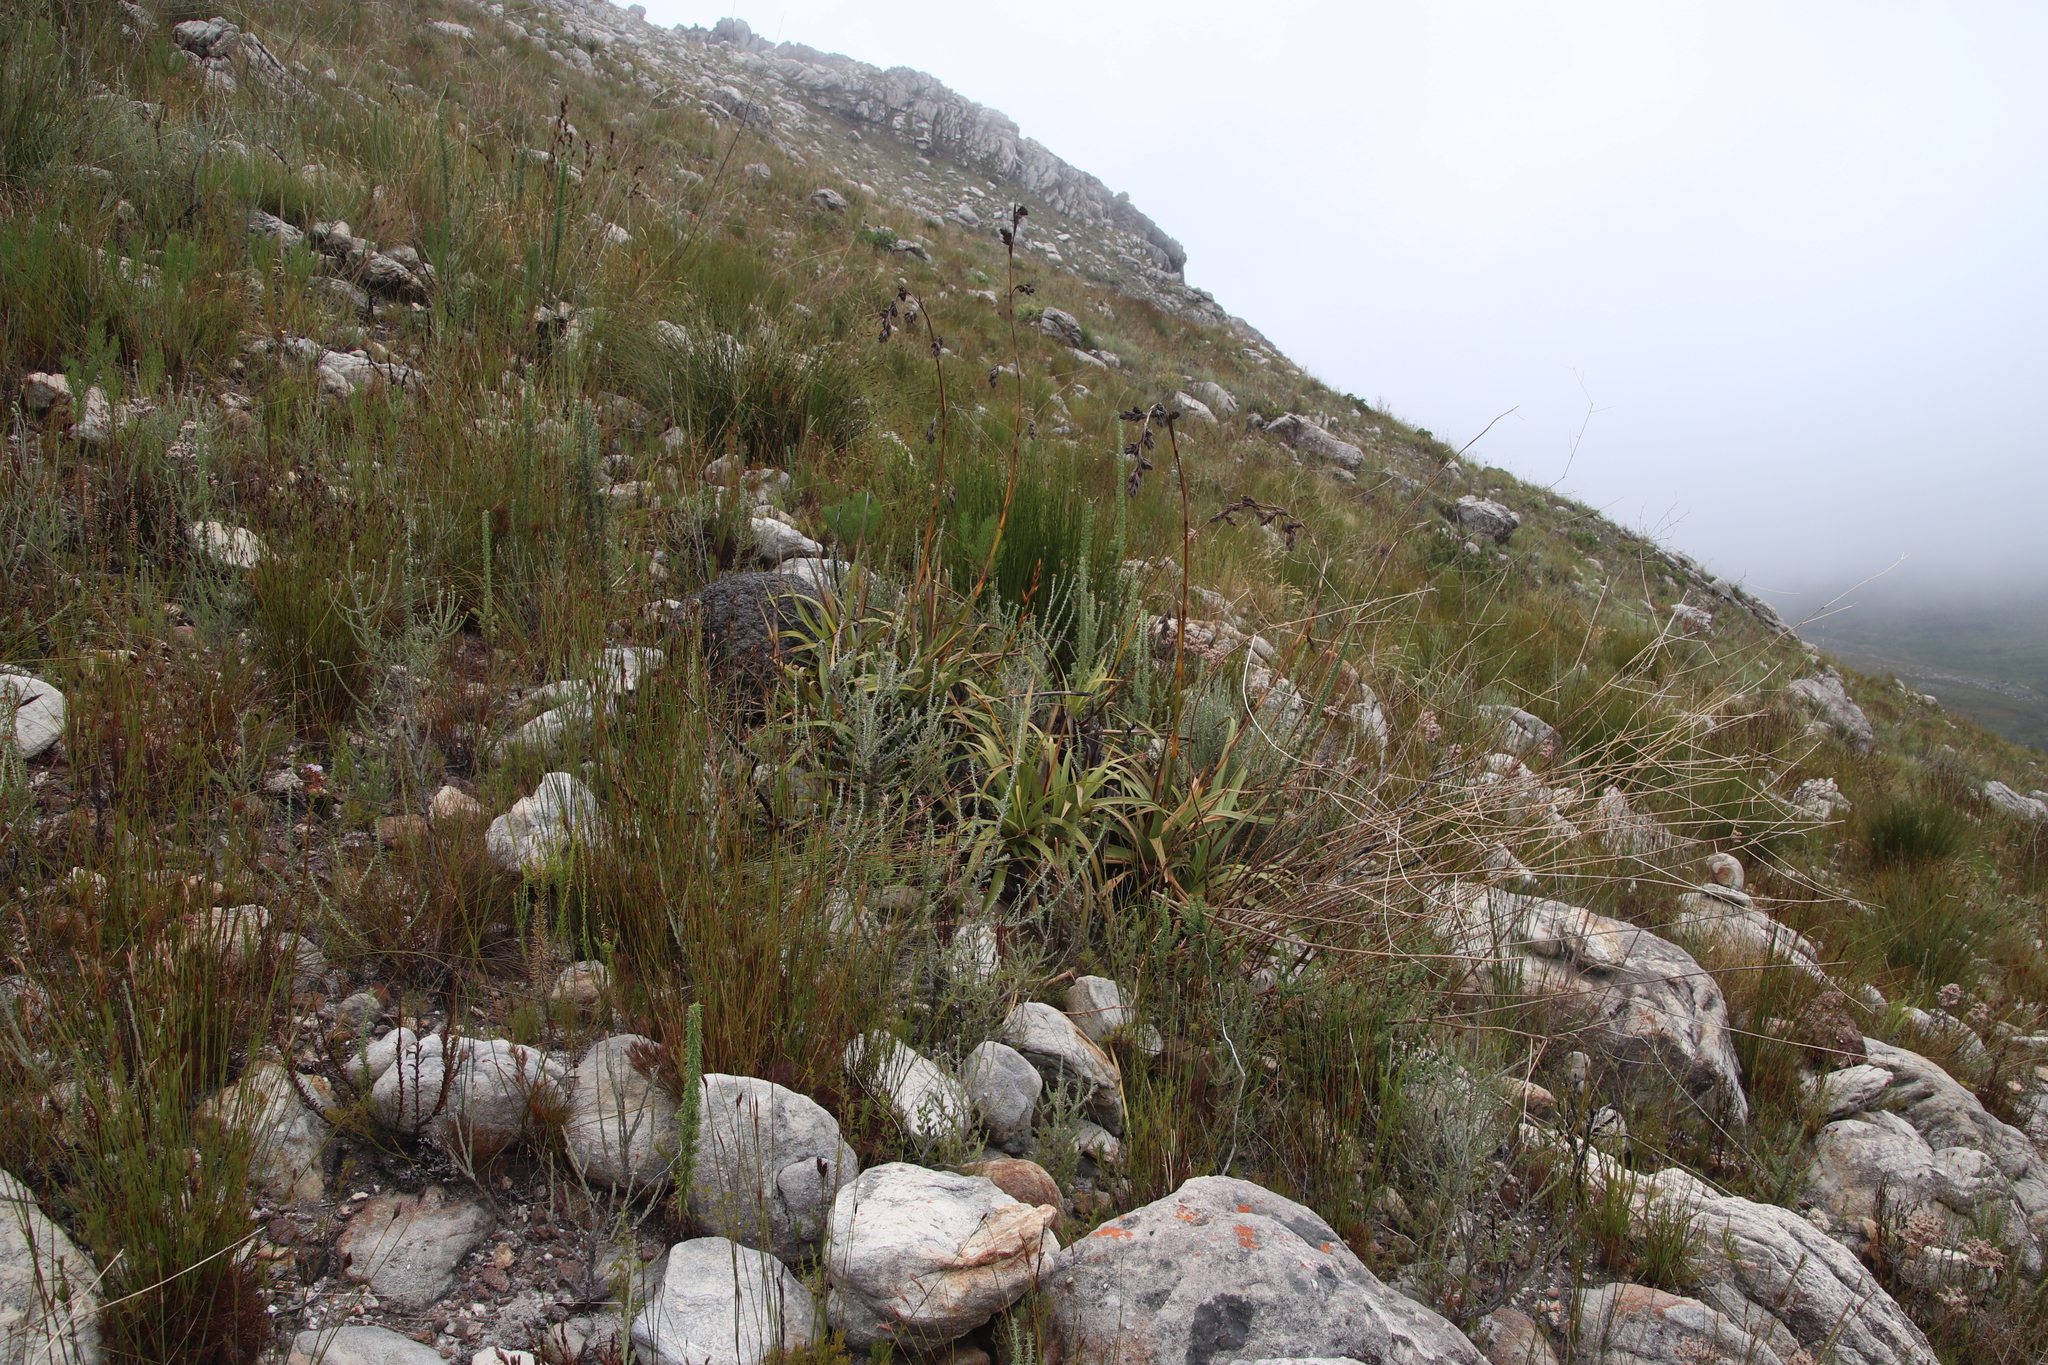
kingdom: Plantae
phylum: Tracheophyta
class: Liliopsida
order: Poales
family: Cyperaceae
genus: Tetraria
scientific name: Tetraria thermalis
